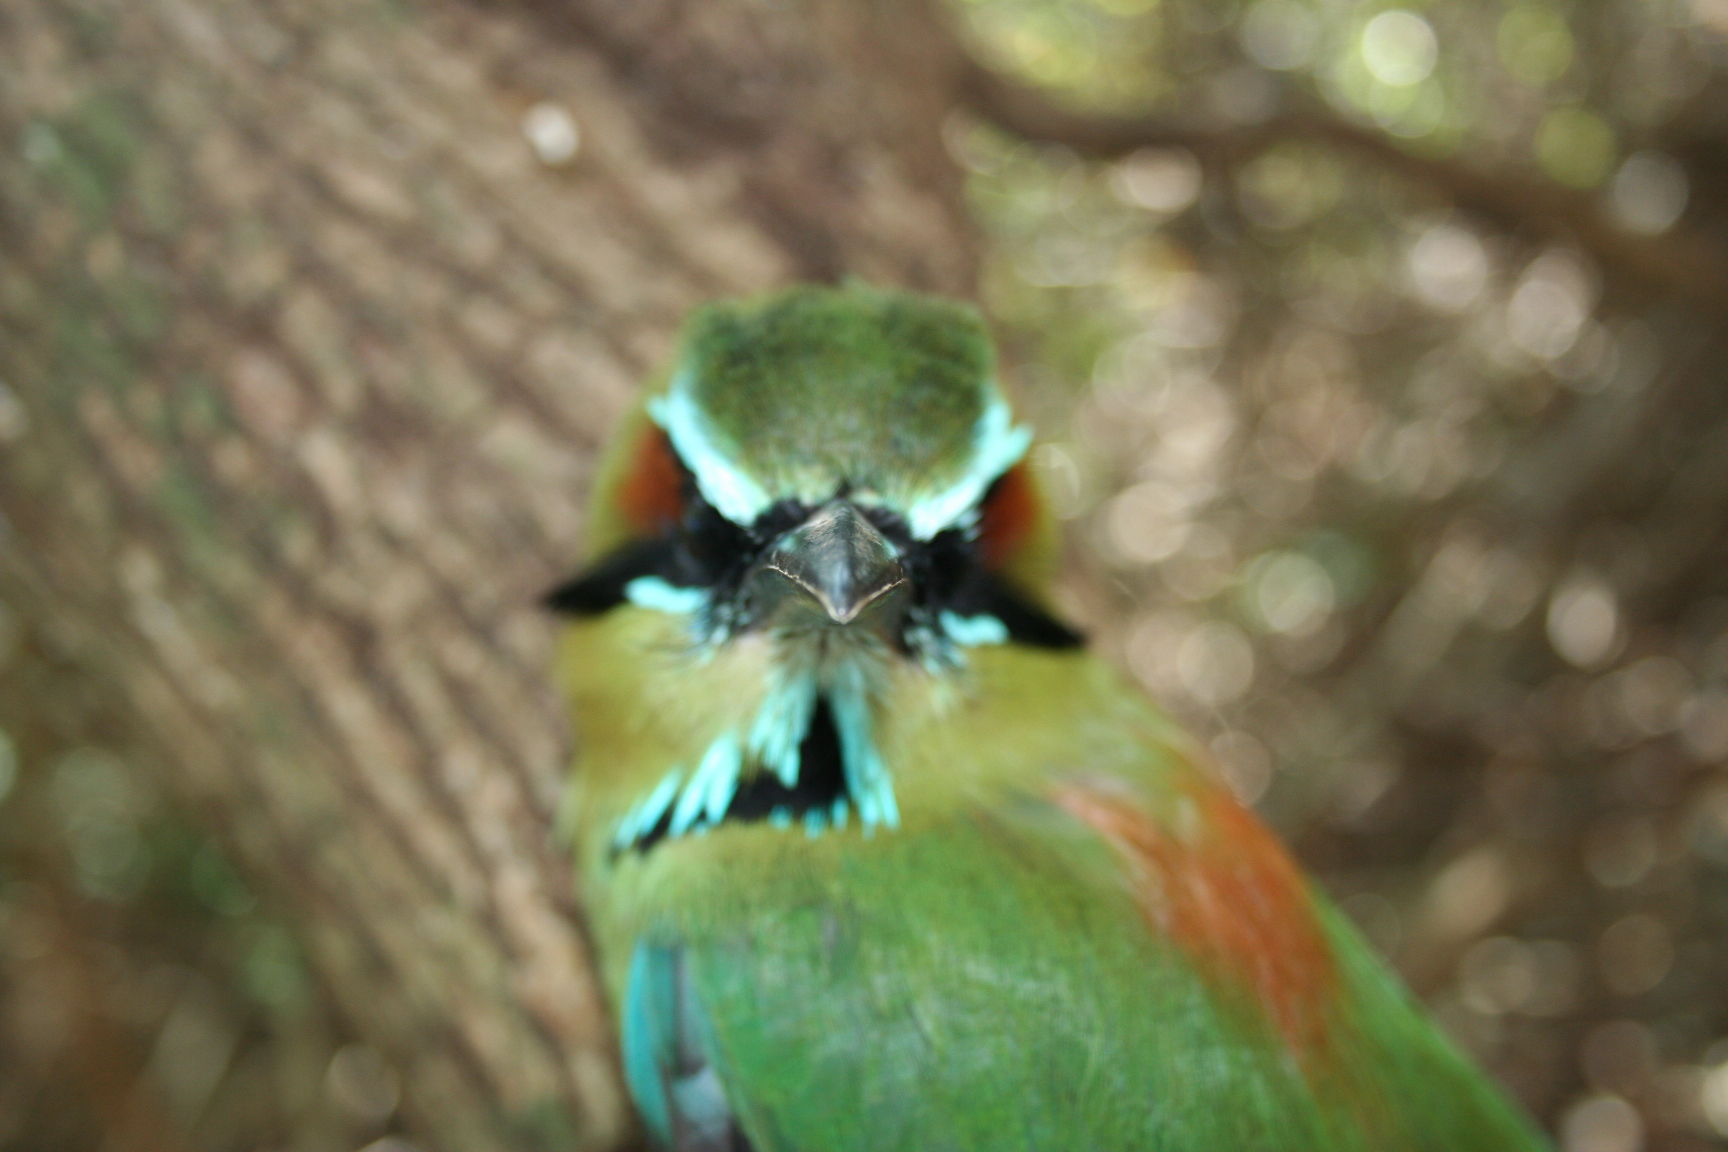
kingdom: Animalia
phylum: Chordata
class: Aves
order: Coraciiformes
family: Momotidae
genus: Eumomota
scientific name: Eumomota superciliosa
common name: Turquoise-browed motmot
